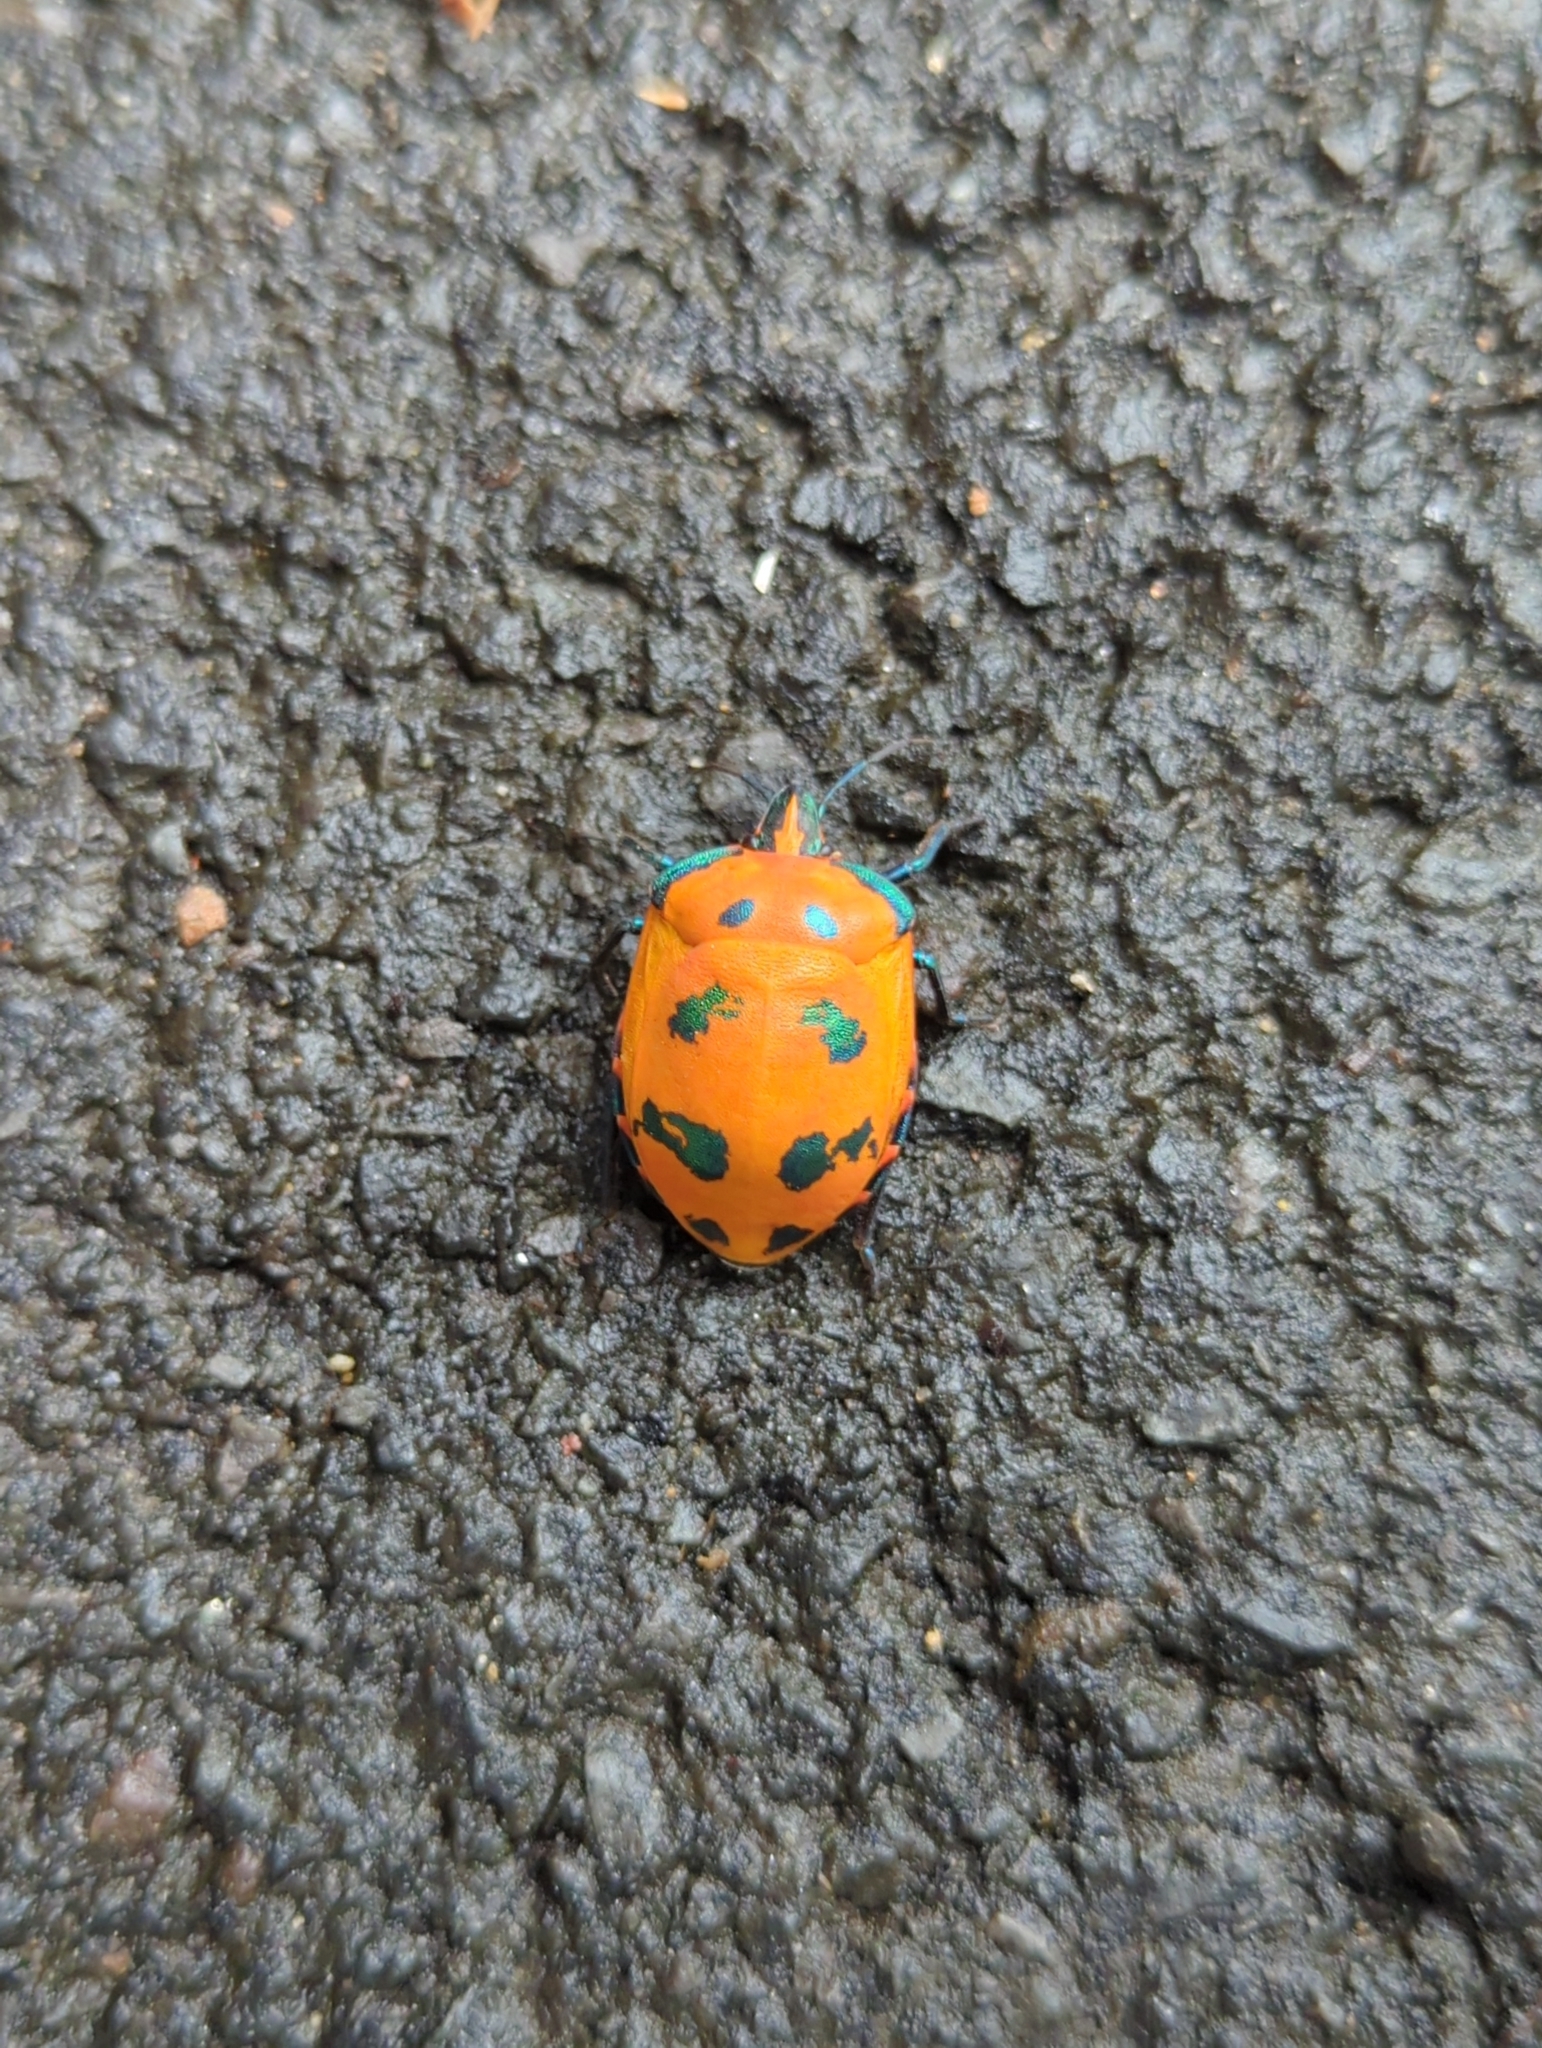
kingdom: Animalia
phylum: Arthropoda
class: Insecta
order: Hemiptera
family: Scutelleridae
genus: Tectocoris
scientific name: Tectocoris diophthalmus
